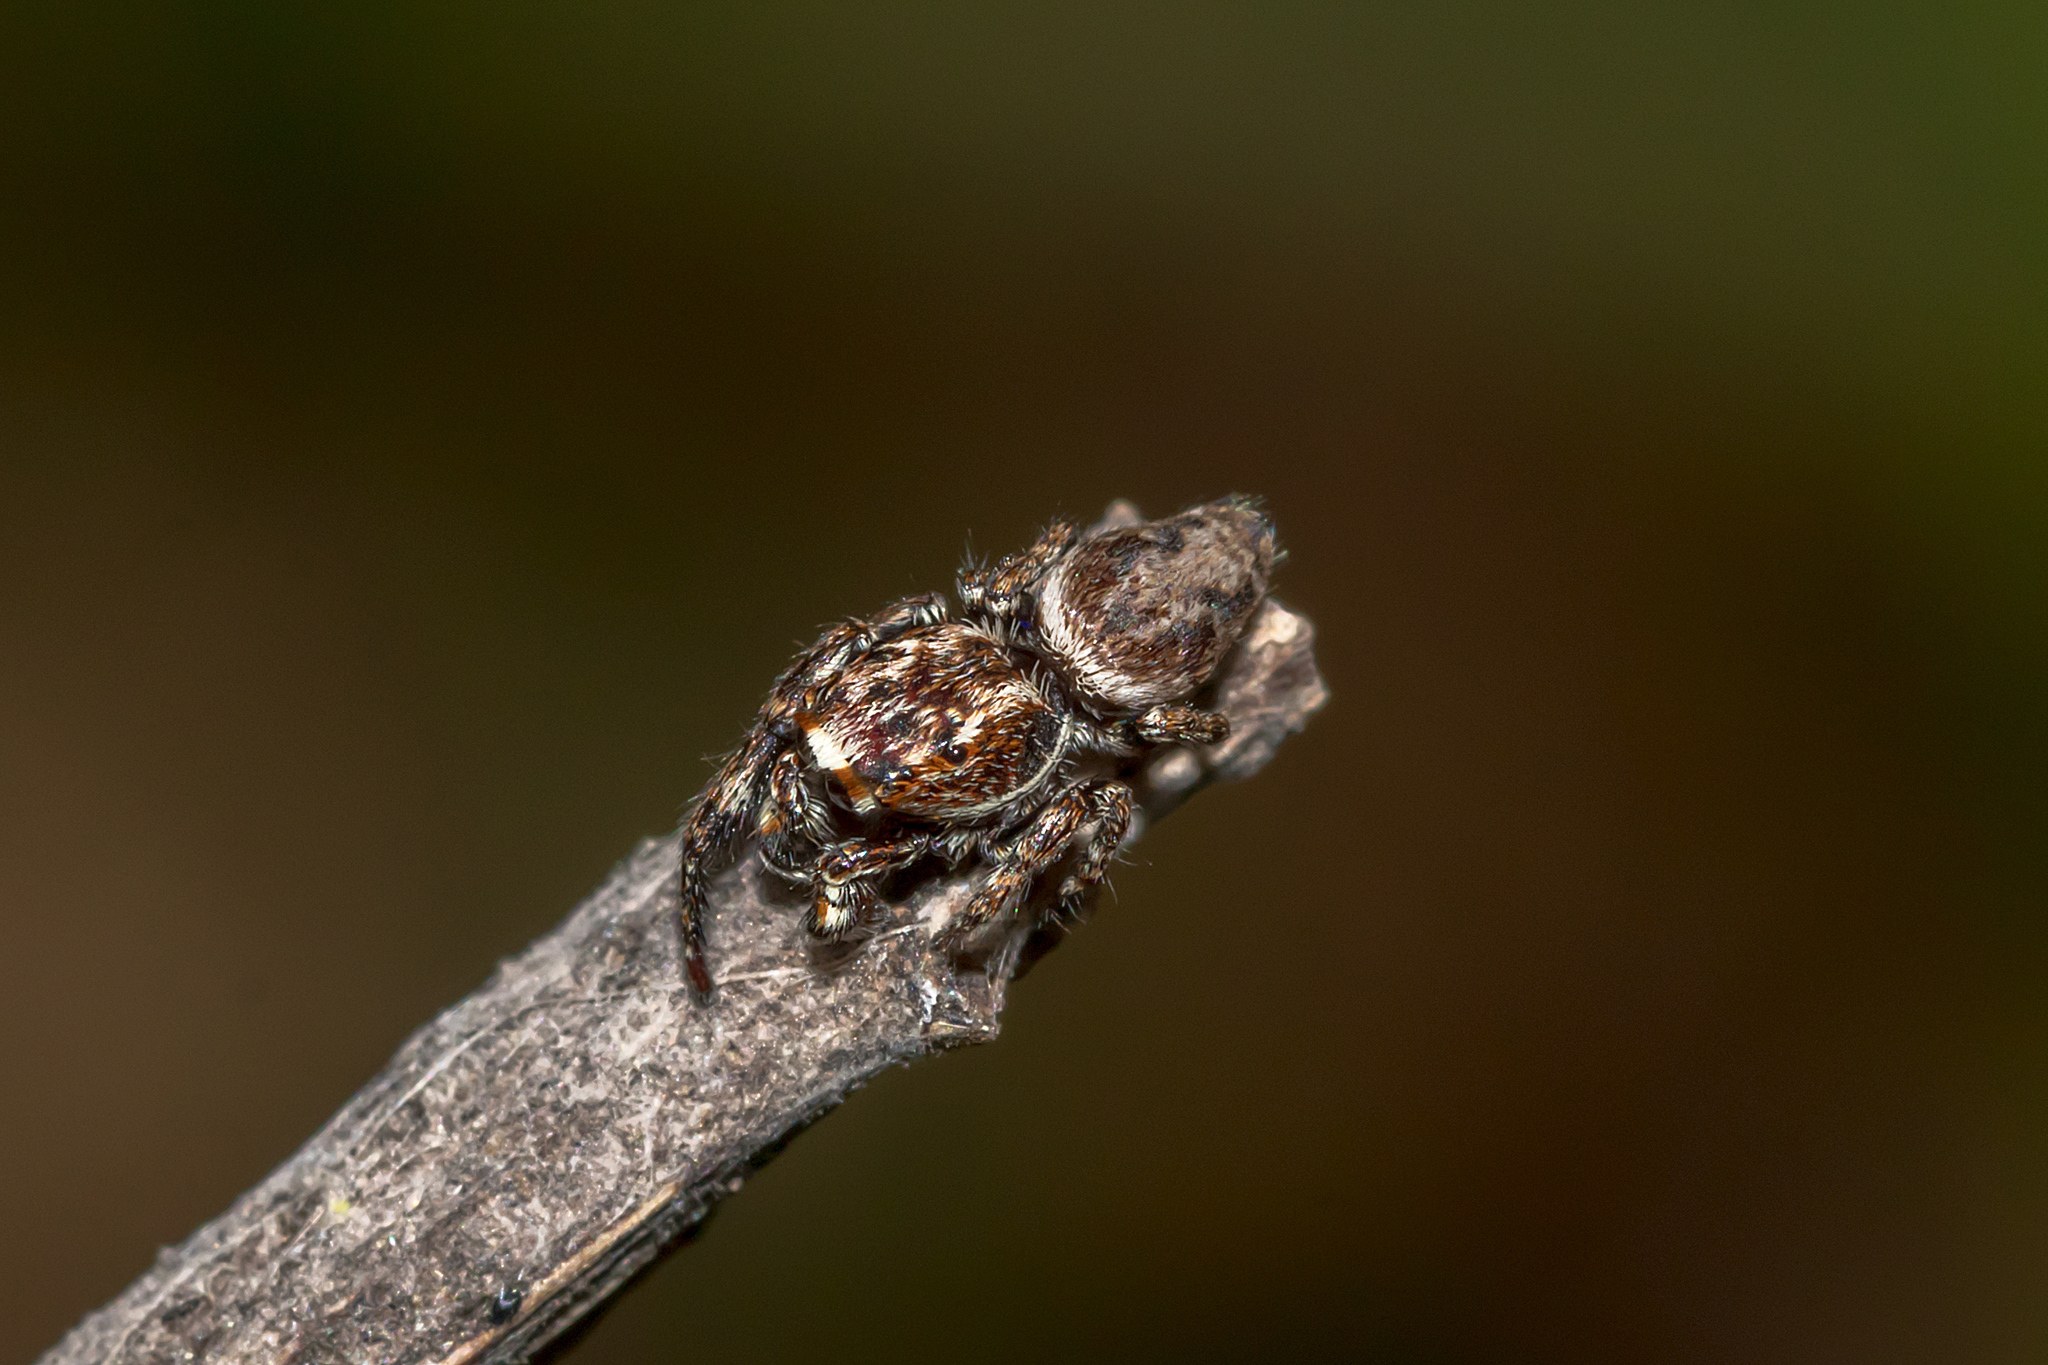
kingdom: Animalia
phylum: Arthropoda
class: Arachnida
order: Araneae
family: Salticidae
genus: Paraphilaeus
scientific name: Paraphilaeus daemeli
